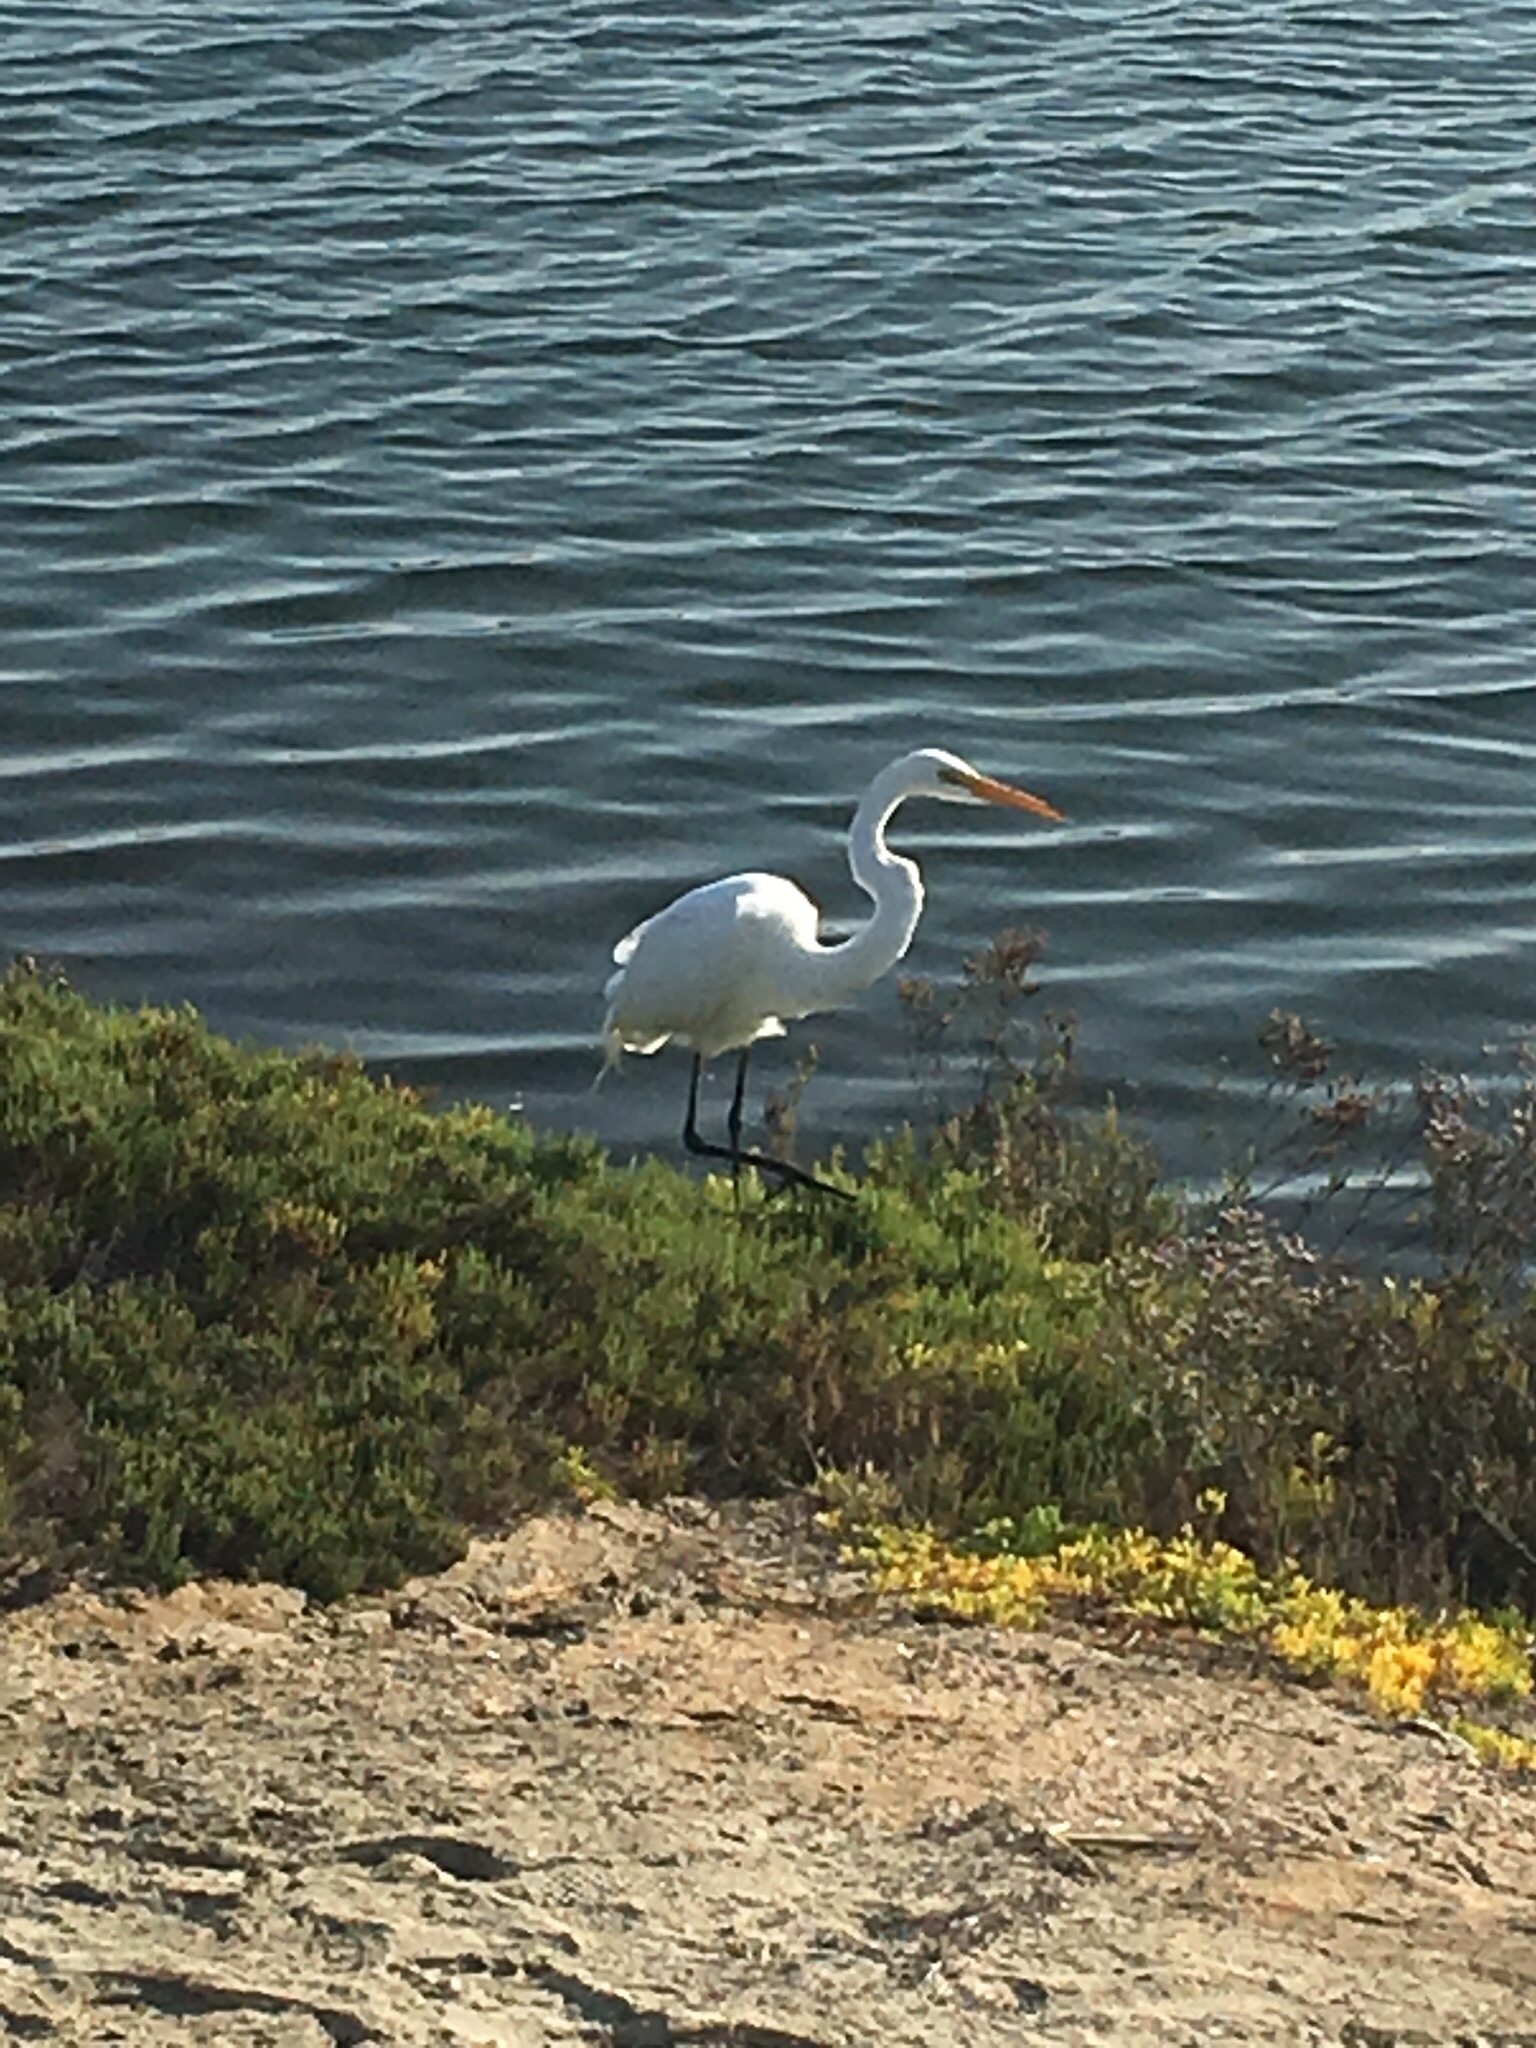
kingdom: Animalia
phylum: Chordata
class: Aves
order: Pelecaniformes
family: Ardeidae
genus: Ardea
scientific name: Ardea alba
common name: Great egret
